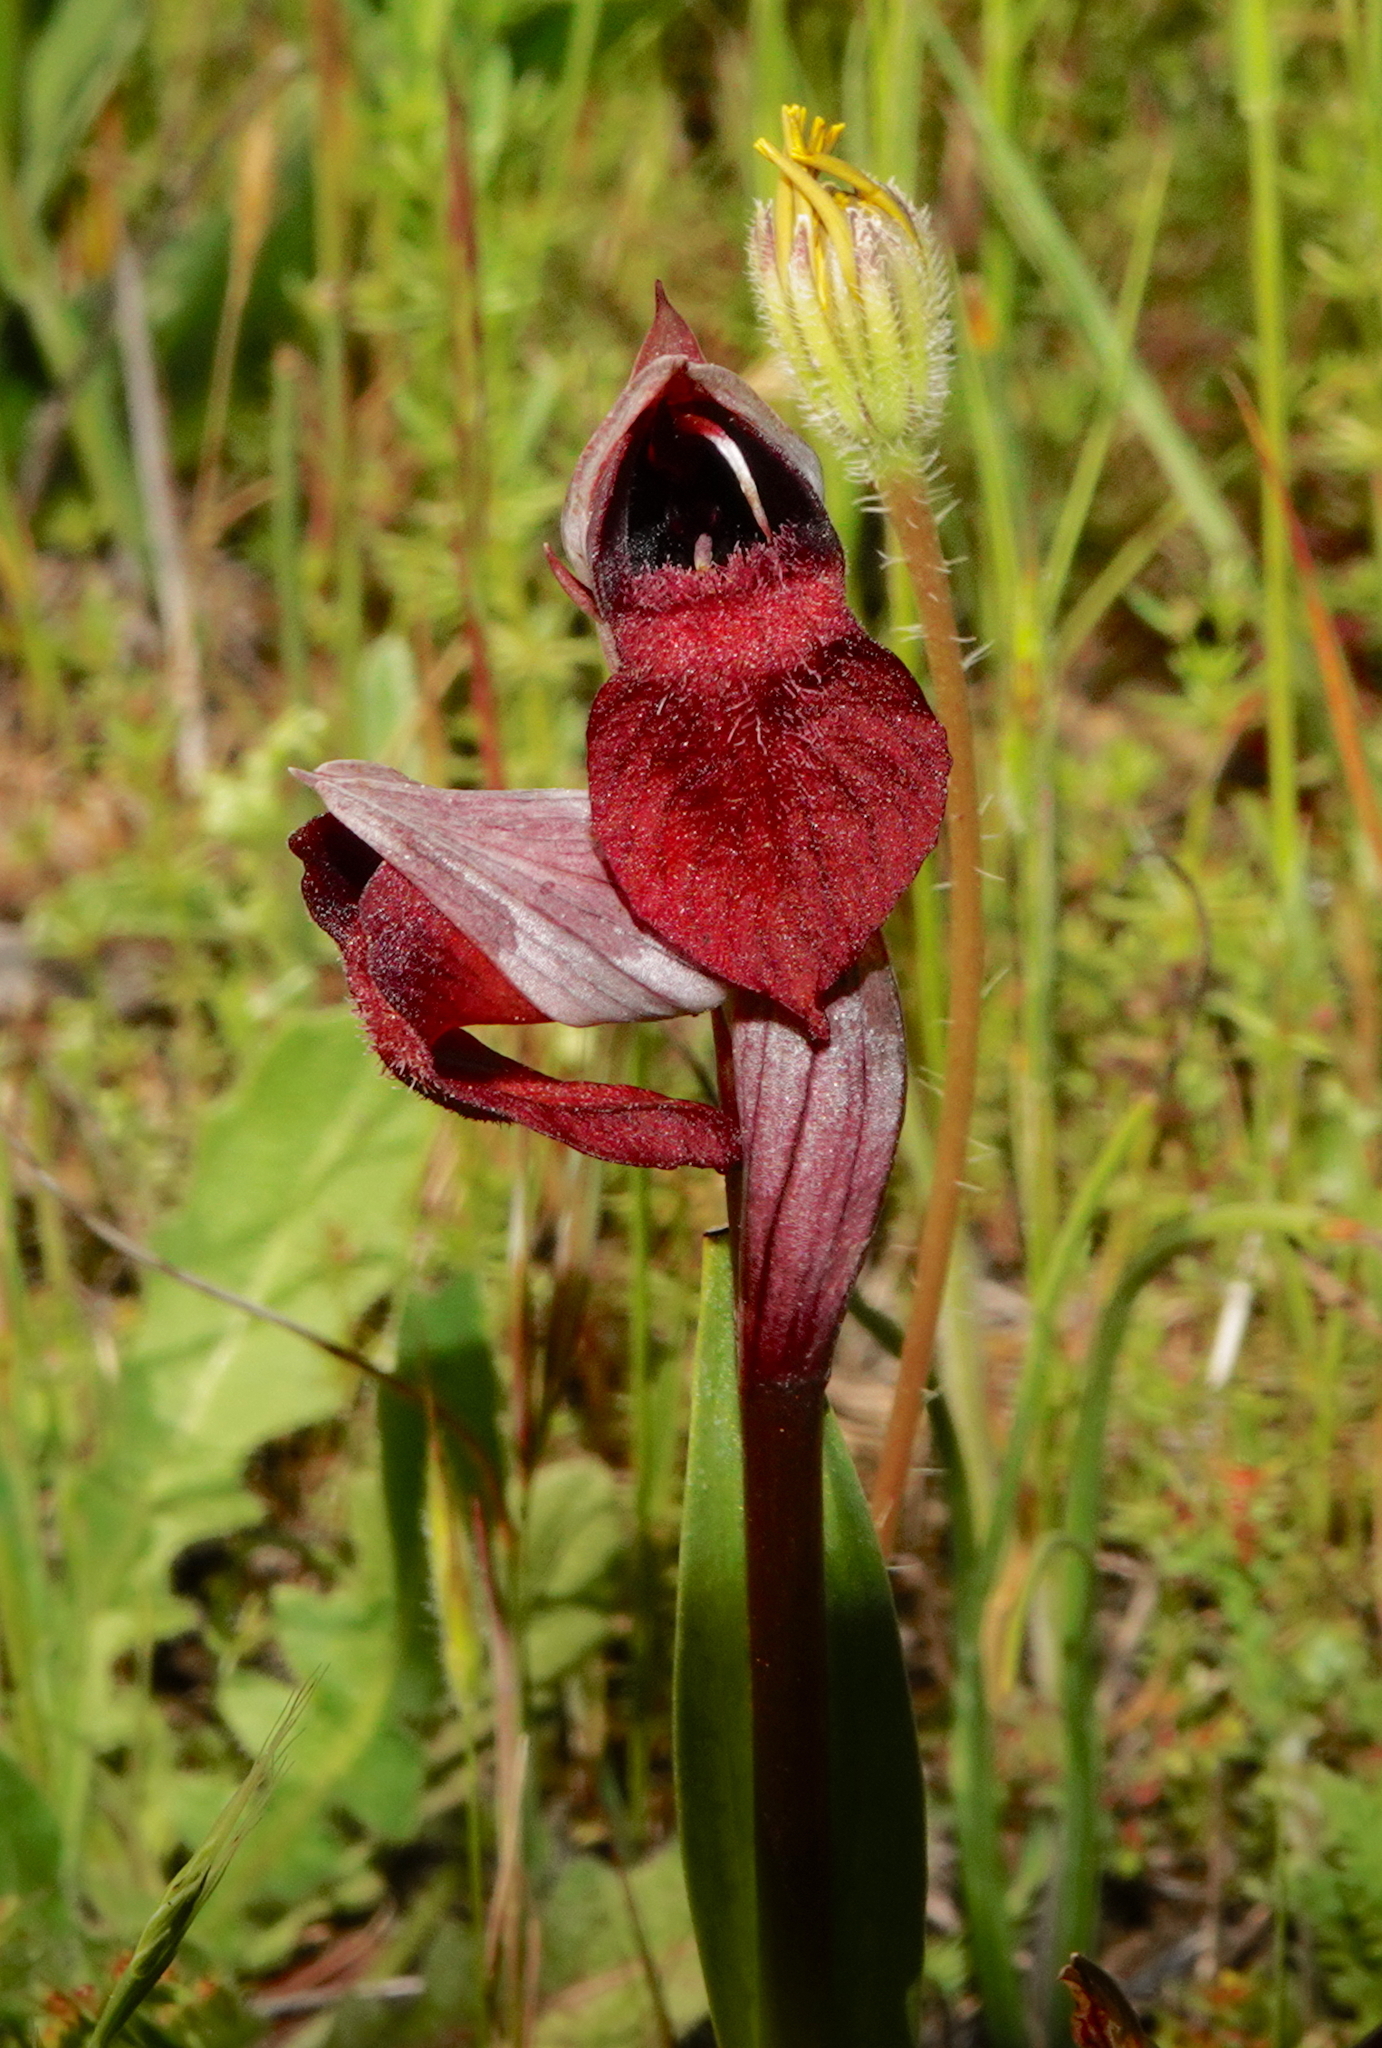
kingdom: Plantae
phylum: Tracheophyta
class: Liliopsida
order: Asparagales
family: Orchidaceae
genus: Serapias
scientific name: Serapias cordigera
